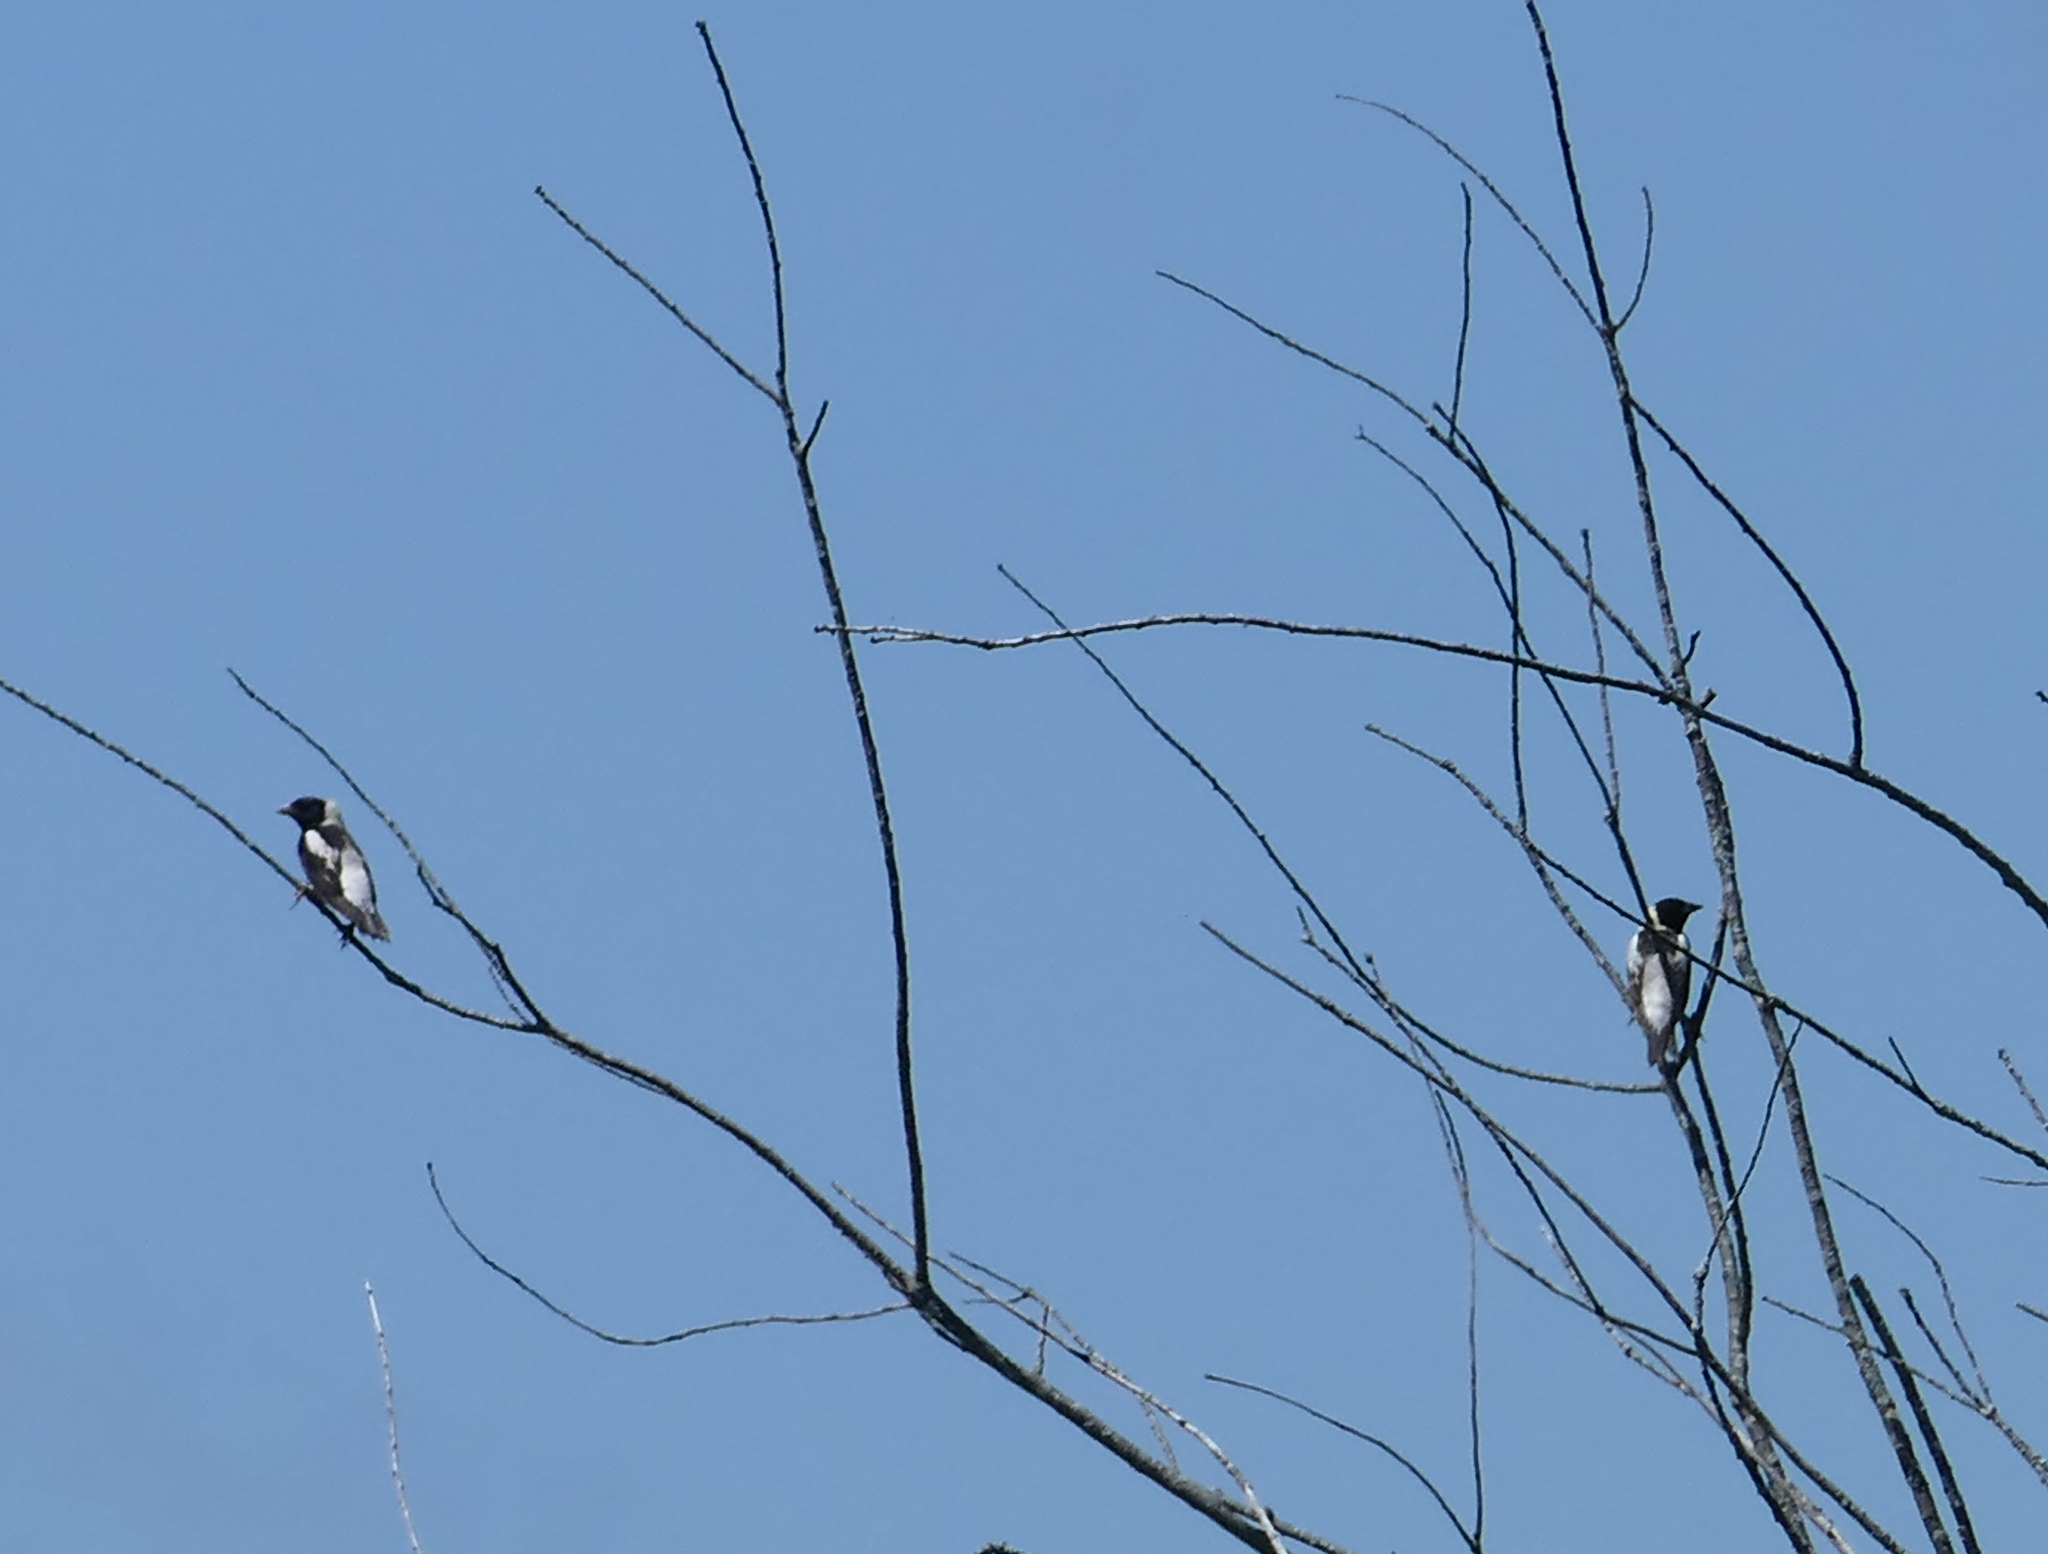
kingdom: Animalia
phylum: Chordata
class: Aves
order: Passeriformes
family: Icteridae
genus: Dolichonyx
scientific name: Dolichonyx oryzivorus
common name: Bobolink
